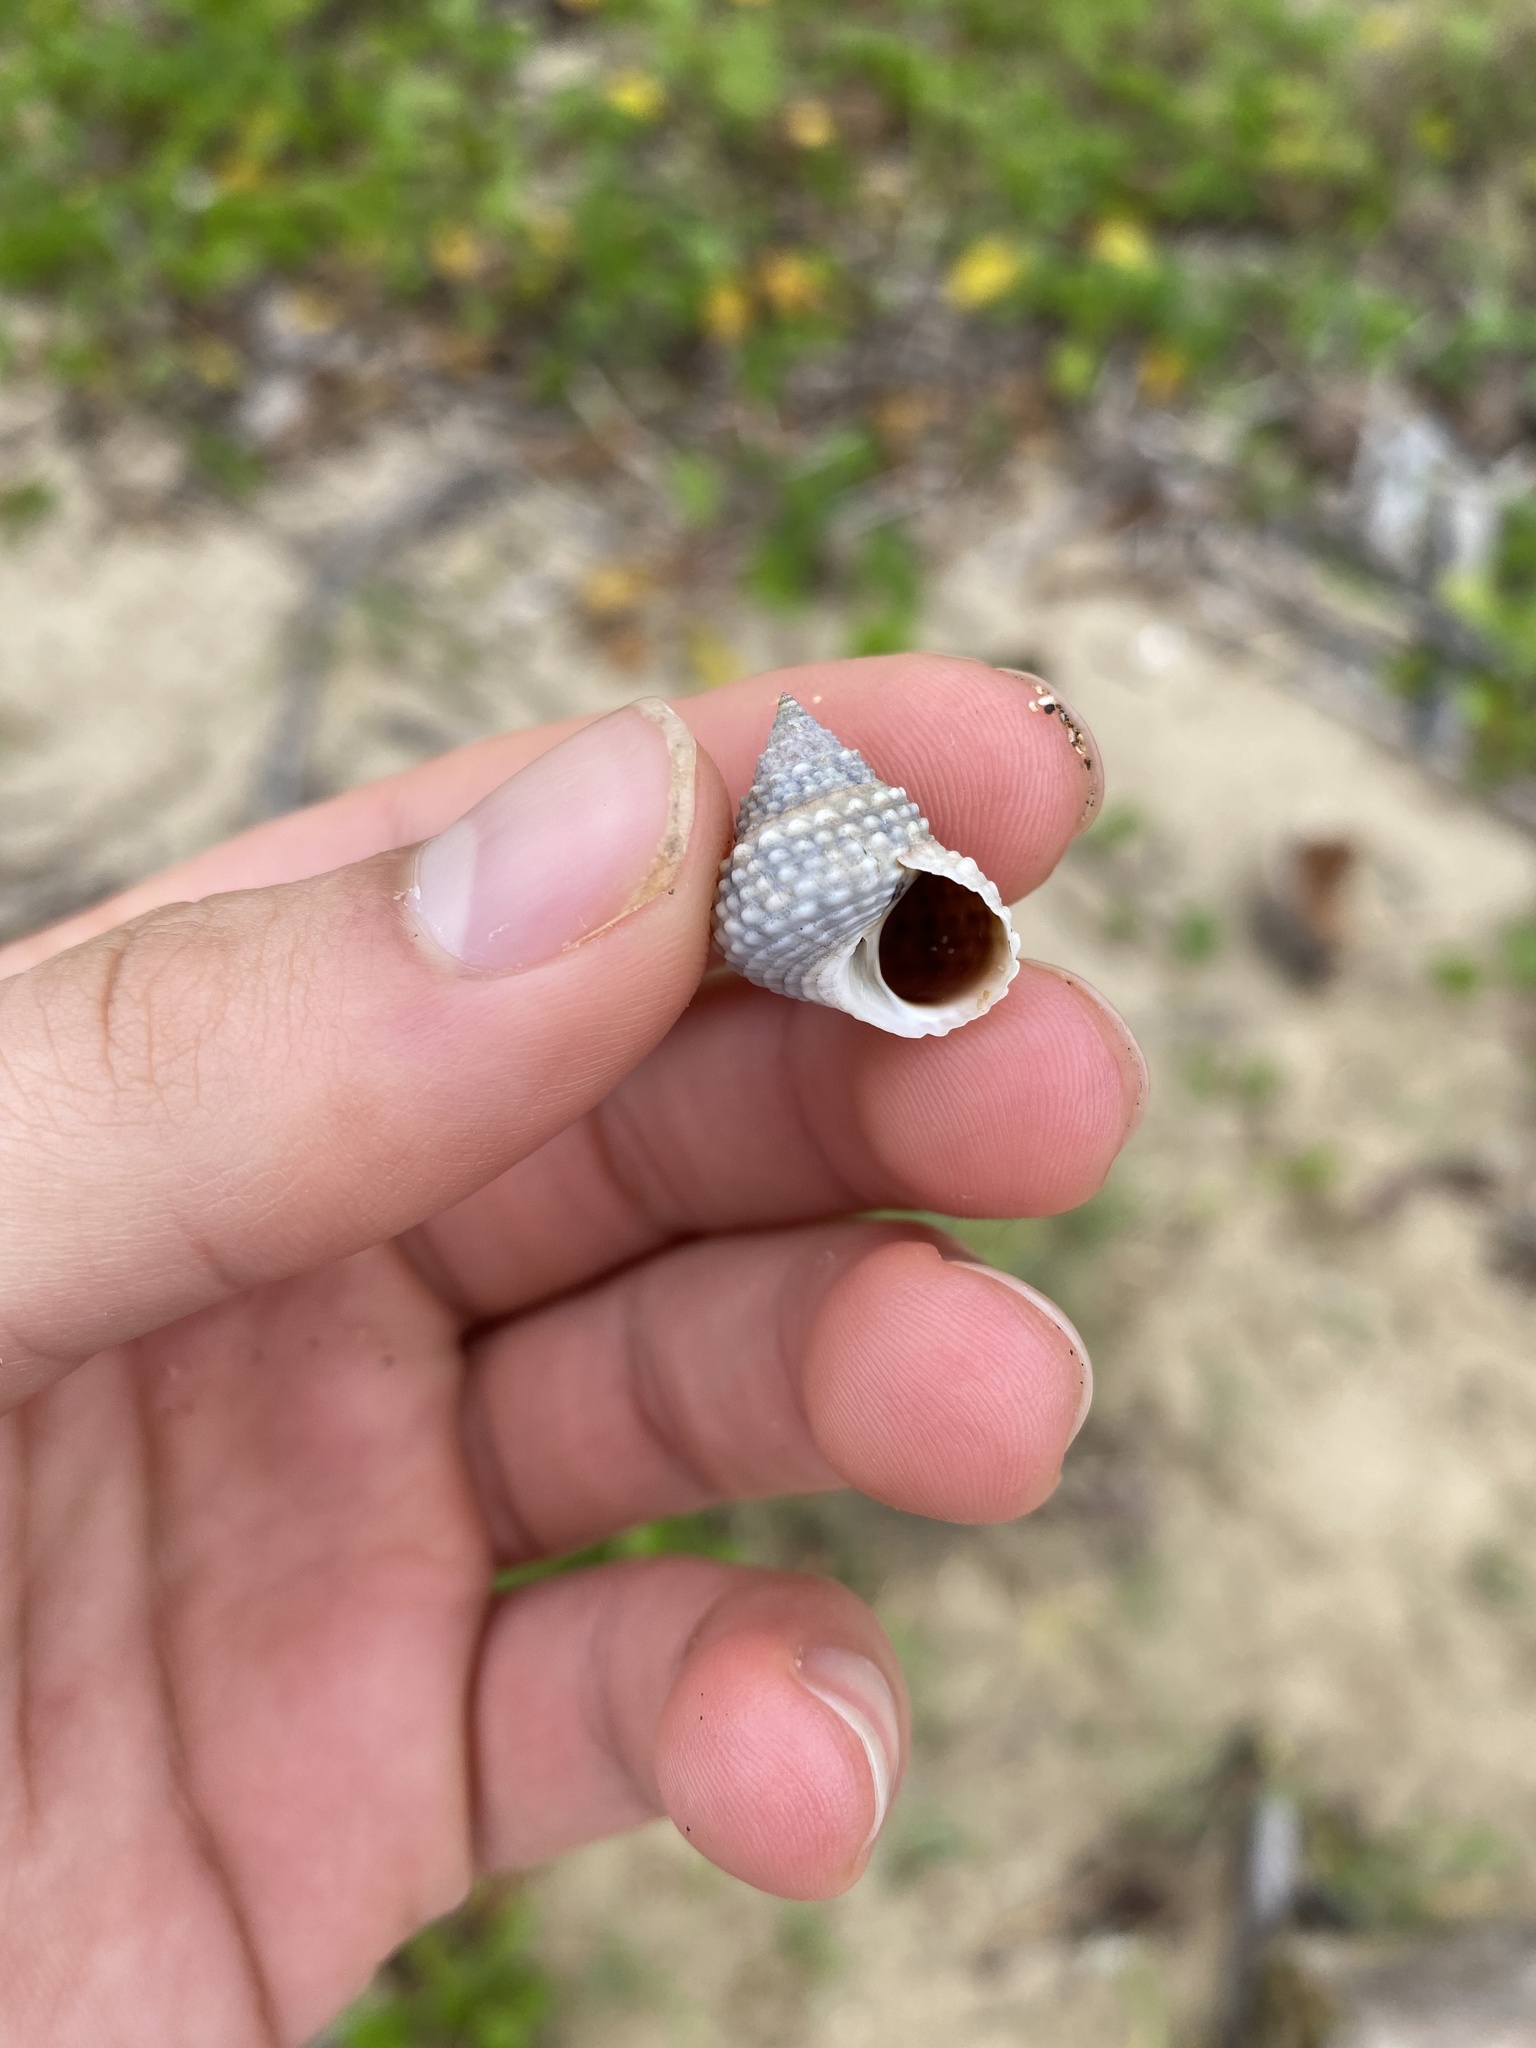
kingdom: Animalia
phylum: Mollusca
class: Gastropoda
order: Littorinimorpha
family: Littorinidae
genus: Cenchritis
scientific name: Cenchritis muricatus
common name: Beaded periwinkle
